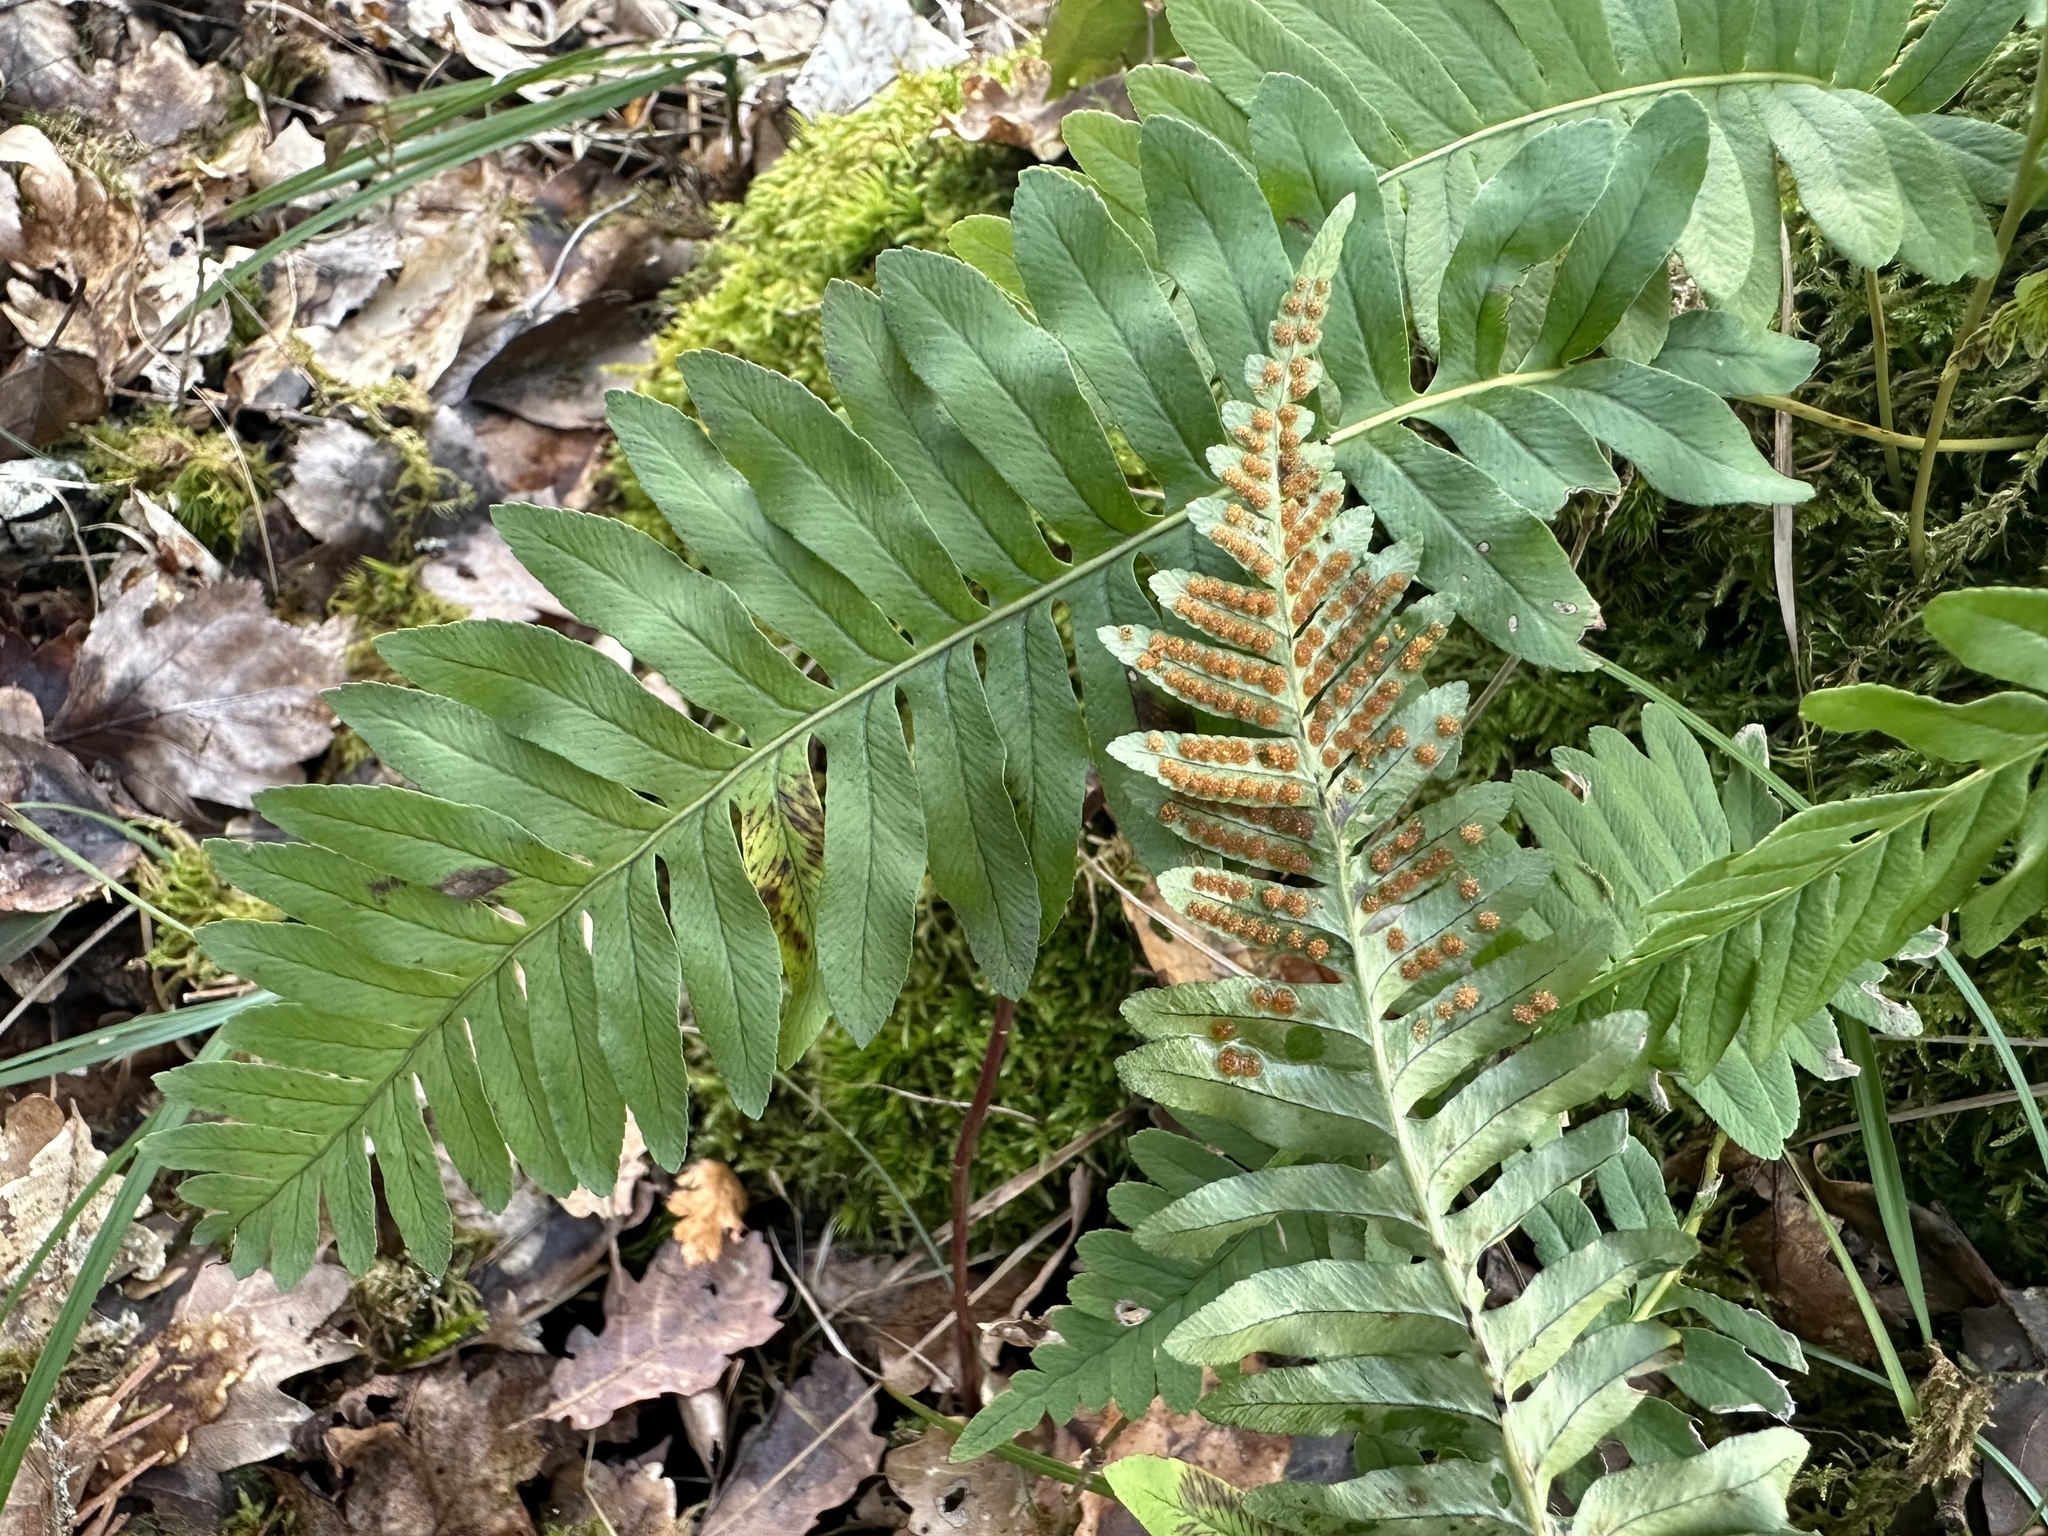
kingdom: Plantae
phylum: Tracheophyta
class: Polypodiopsida
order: Polypodiales
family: Polypodiaceae
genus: Polypodium
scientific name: Polypodium vulgare
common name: Common polypody
